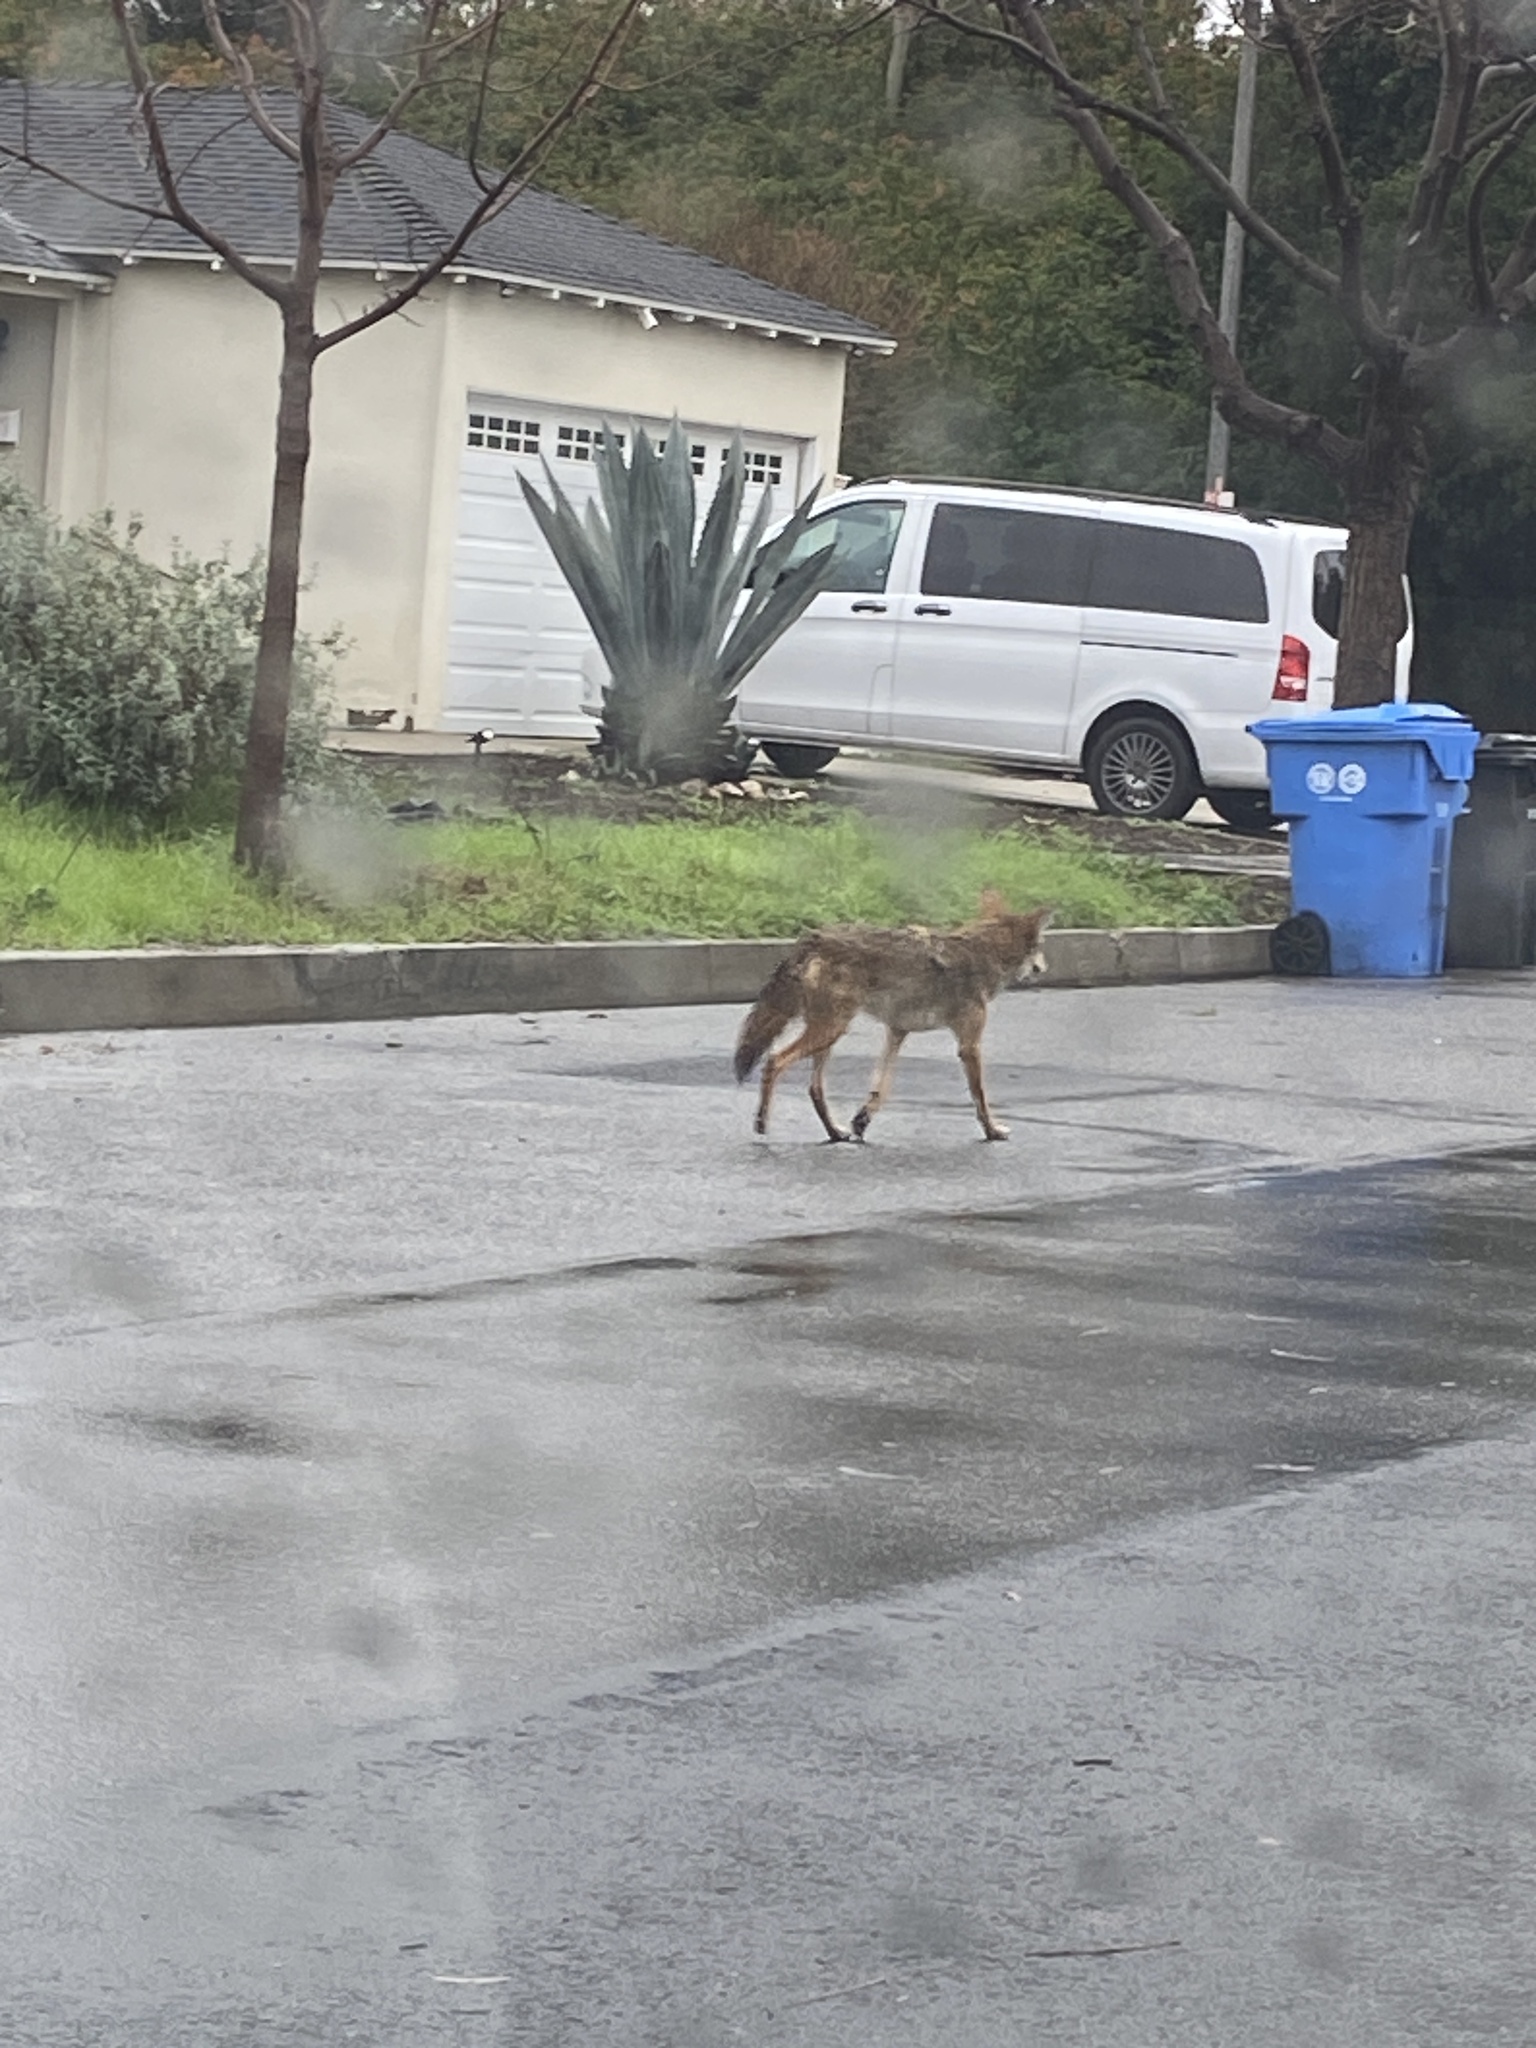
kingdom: Animalia
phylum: Chordata
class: Mammalia
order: Carnivora
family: Canidae
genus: Canis
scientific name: Canis latrans
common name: Coyote
